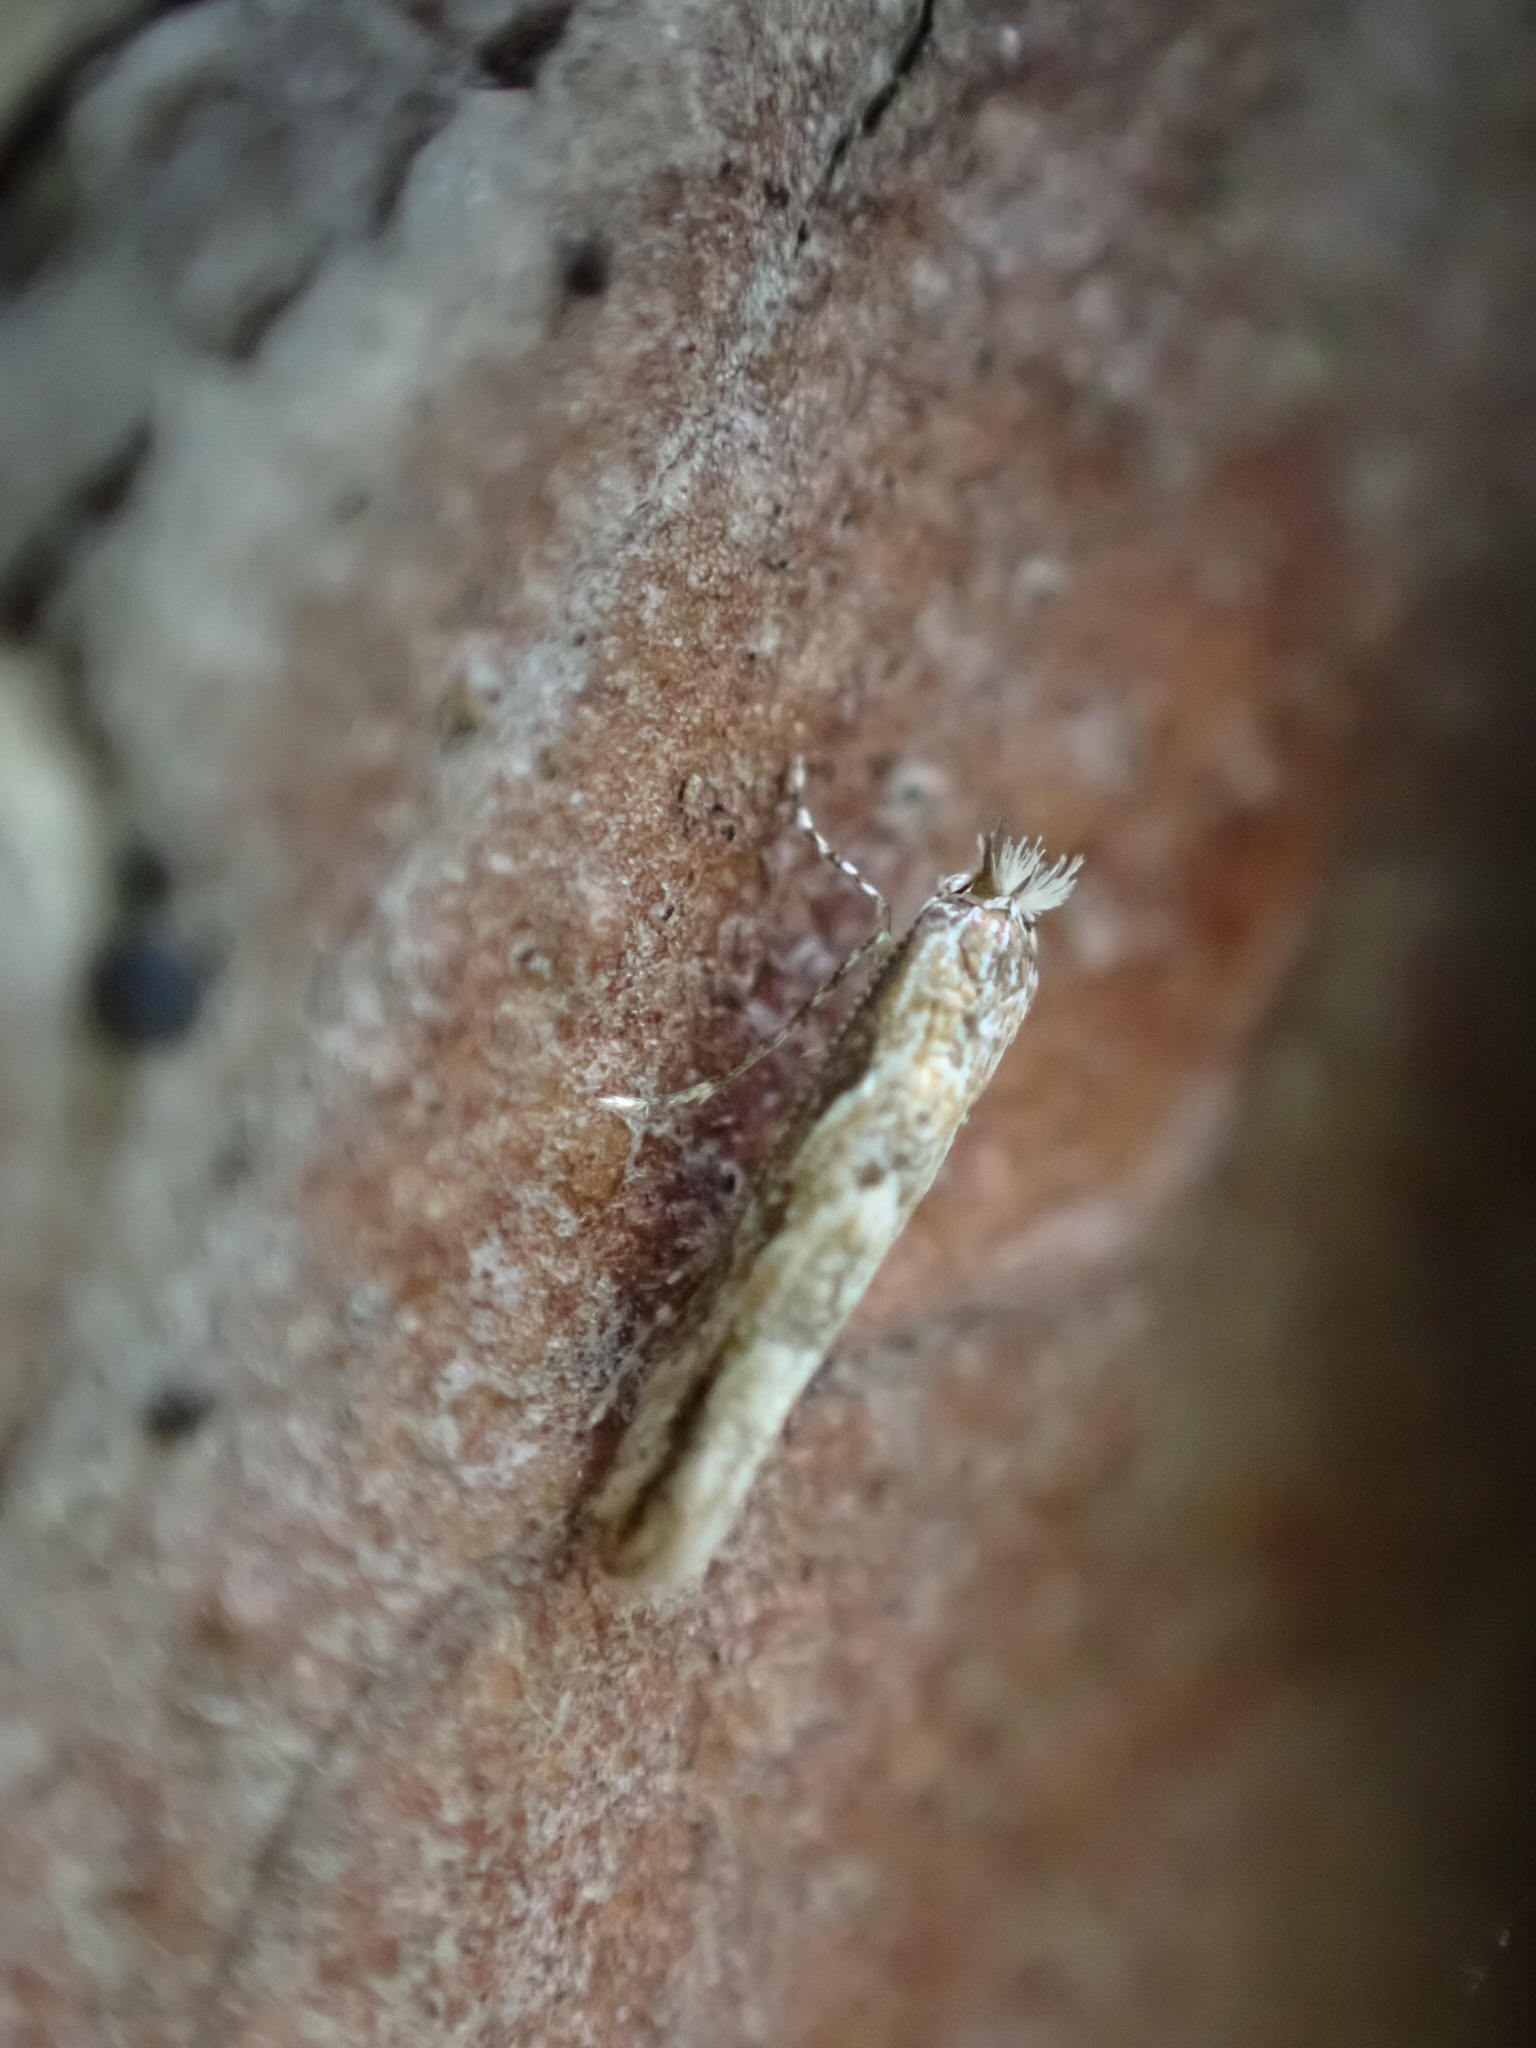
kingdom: Animalia
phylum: Arthropoda
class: Insecta
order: Lepidoptera
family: Gracillariidae
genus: Phyllonorycter
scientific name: Phyllonorycter issikii
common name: Linden midget
